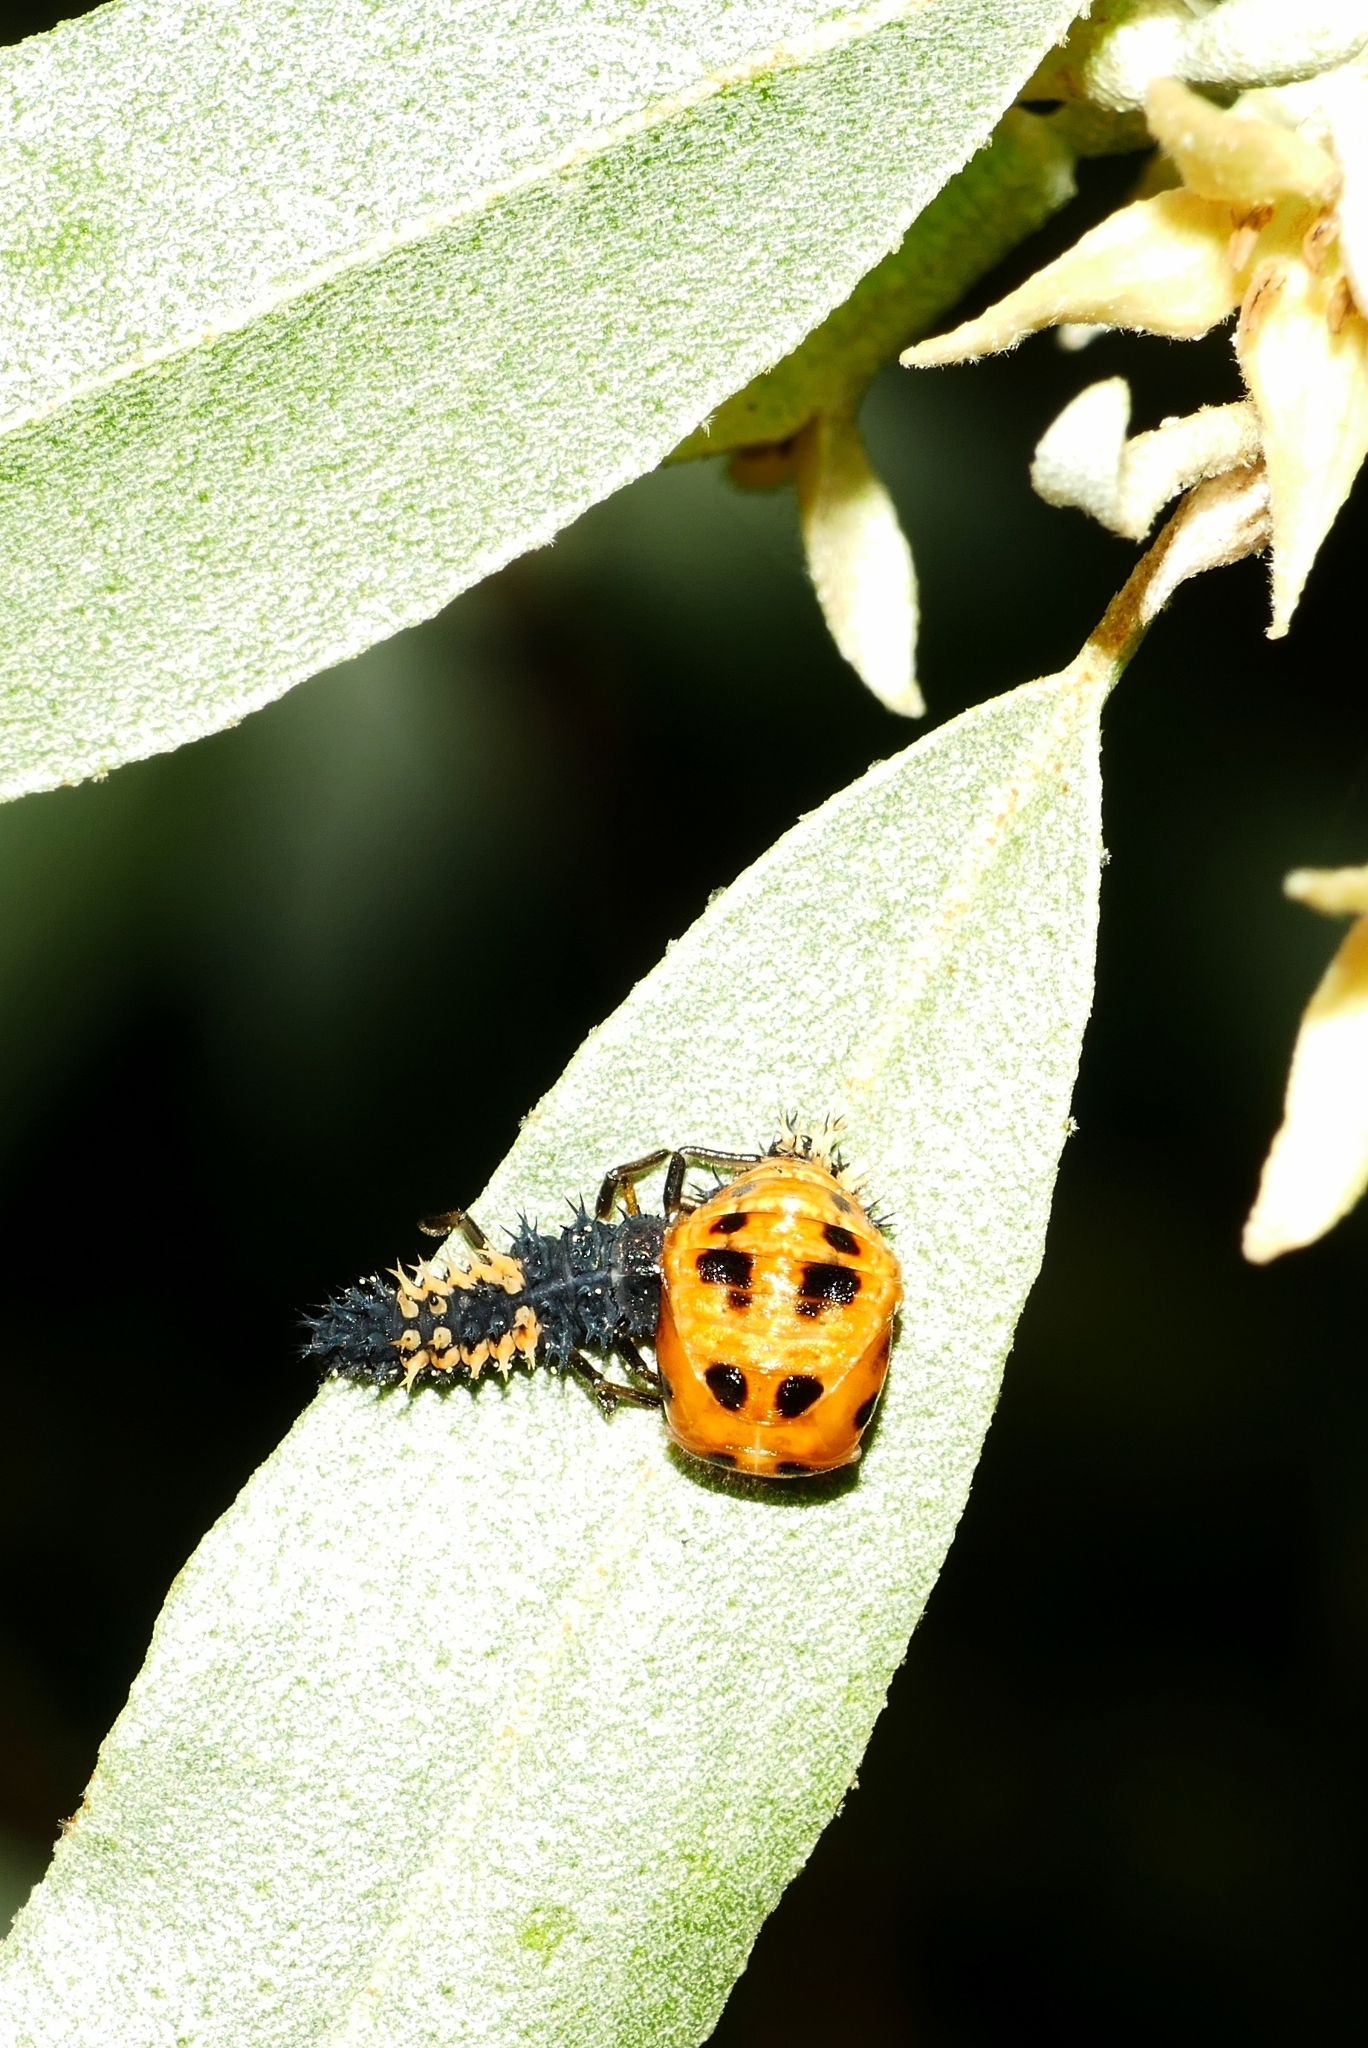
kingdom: Animalia
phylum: Arthropoda
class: Insecta
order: Coleoptera
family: Coccinellidae
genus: Harmonia
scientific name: Harmonia axyridis
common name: Harlequin ladybird
